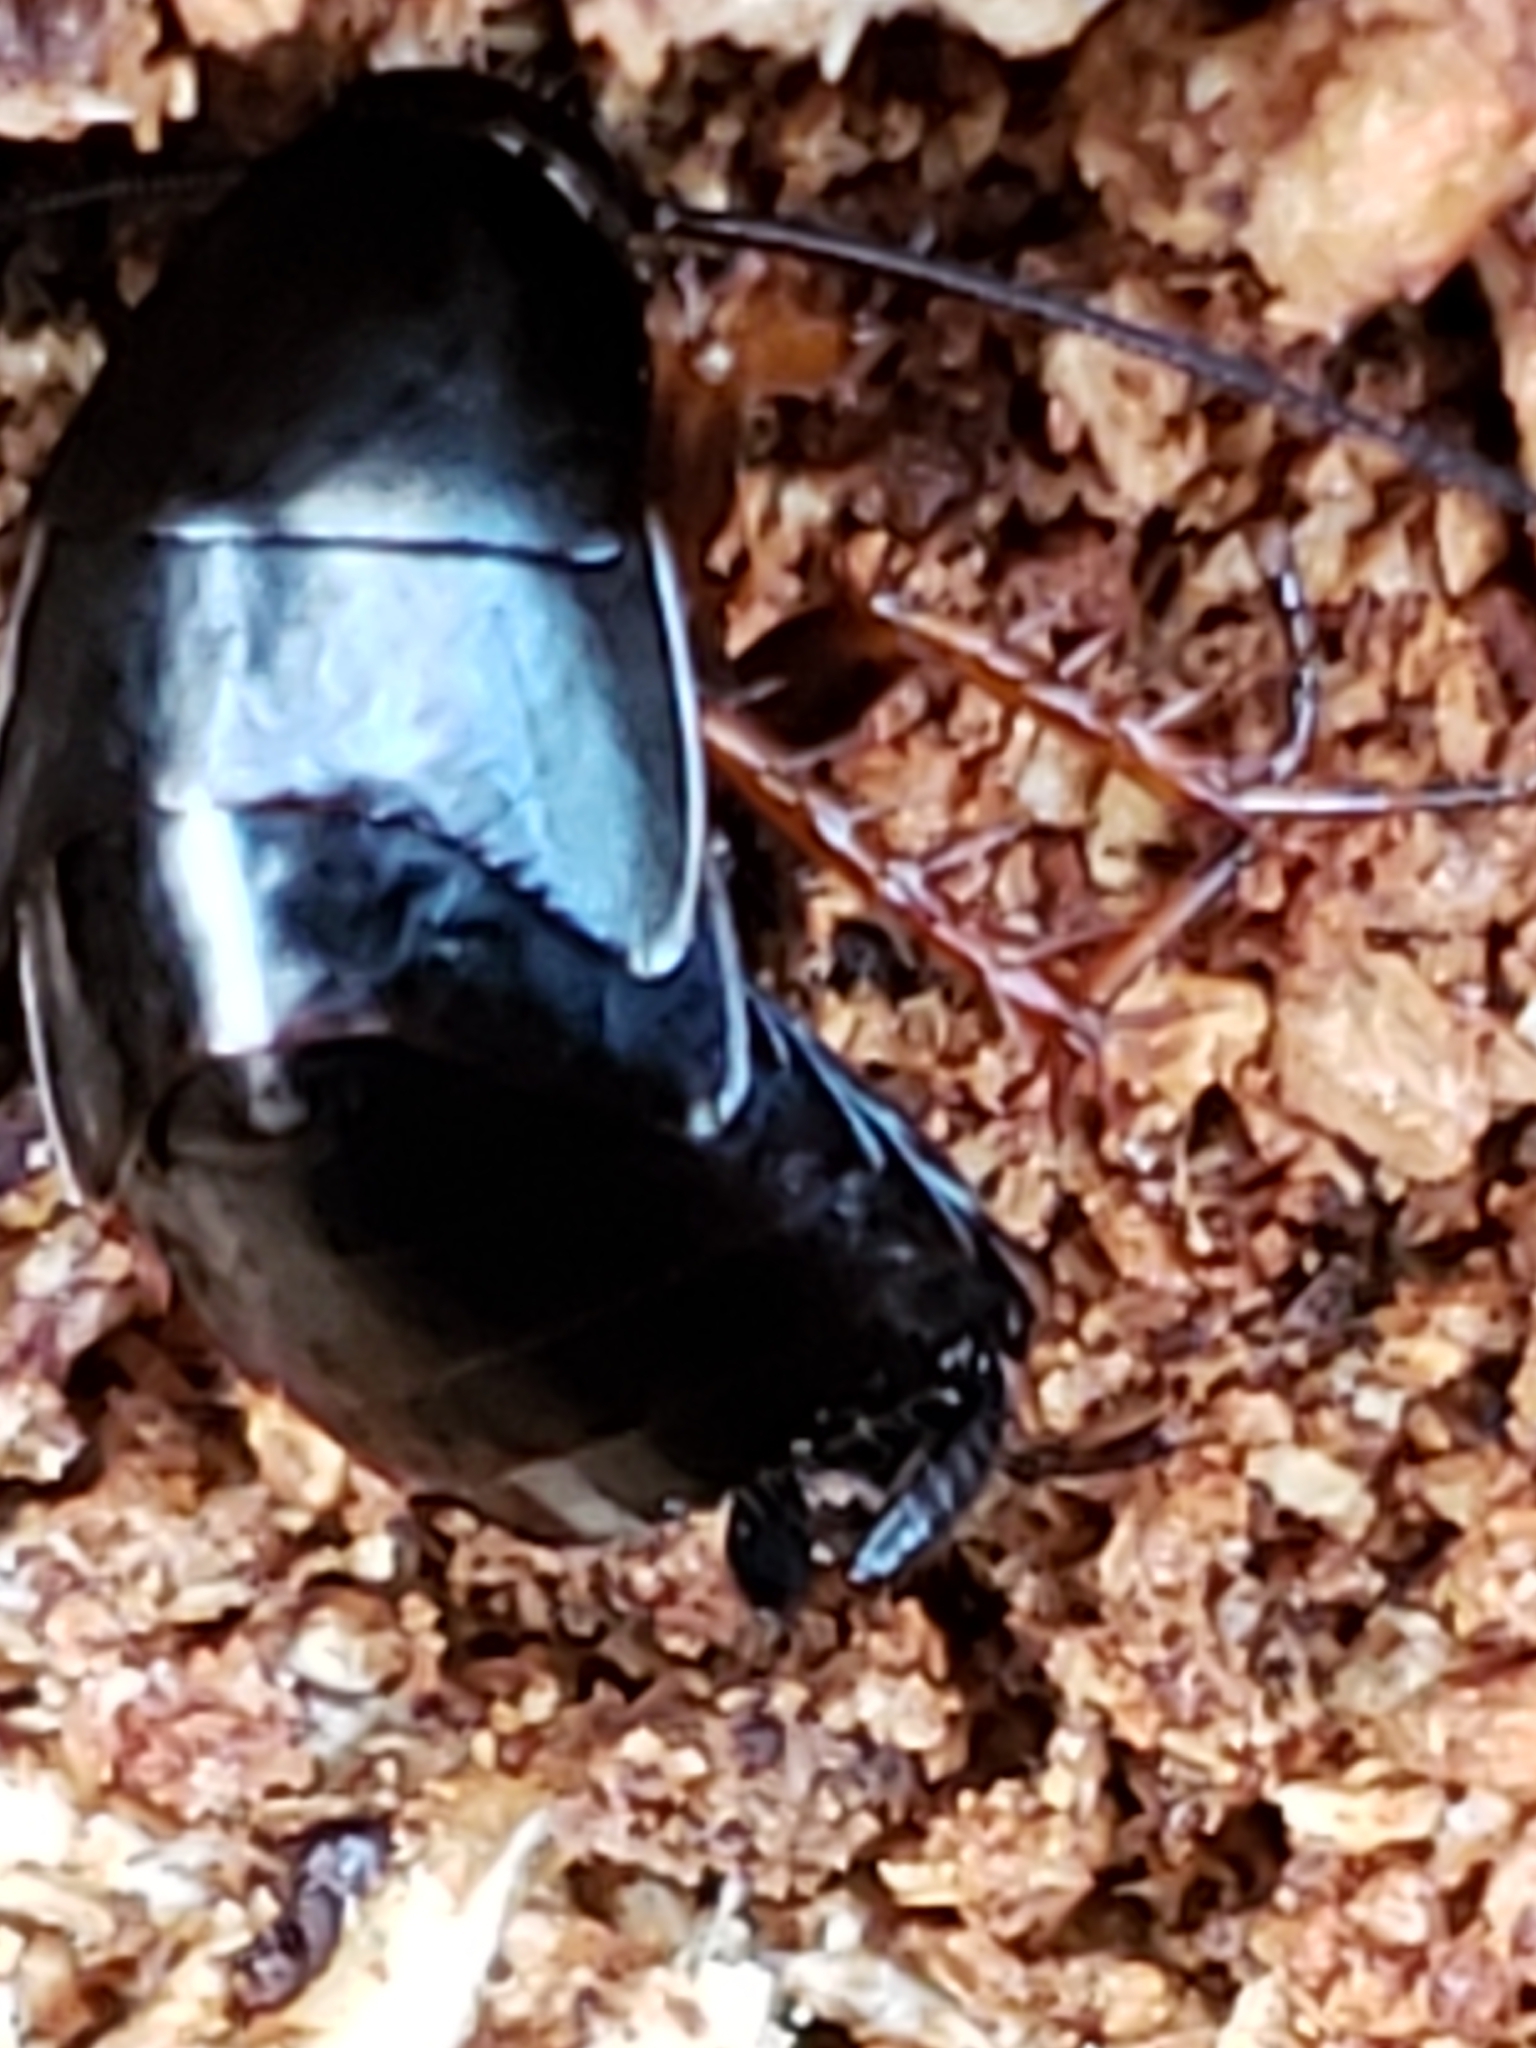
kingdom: Animalia
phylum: Arthropoda
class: Insecta
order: Blattodea
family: Ectobiidae
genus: Ischnoptera
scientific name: Ischnoptera deropeltiformis
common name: Dark wood cockroach
